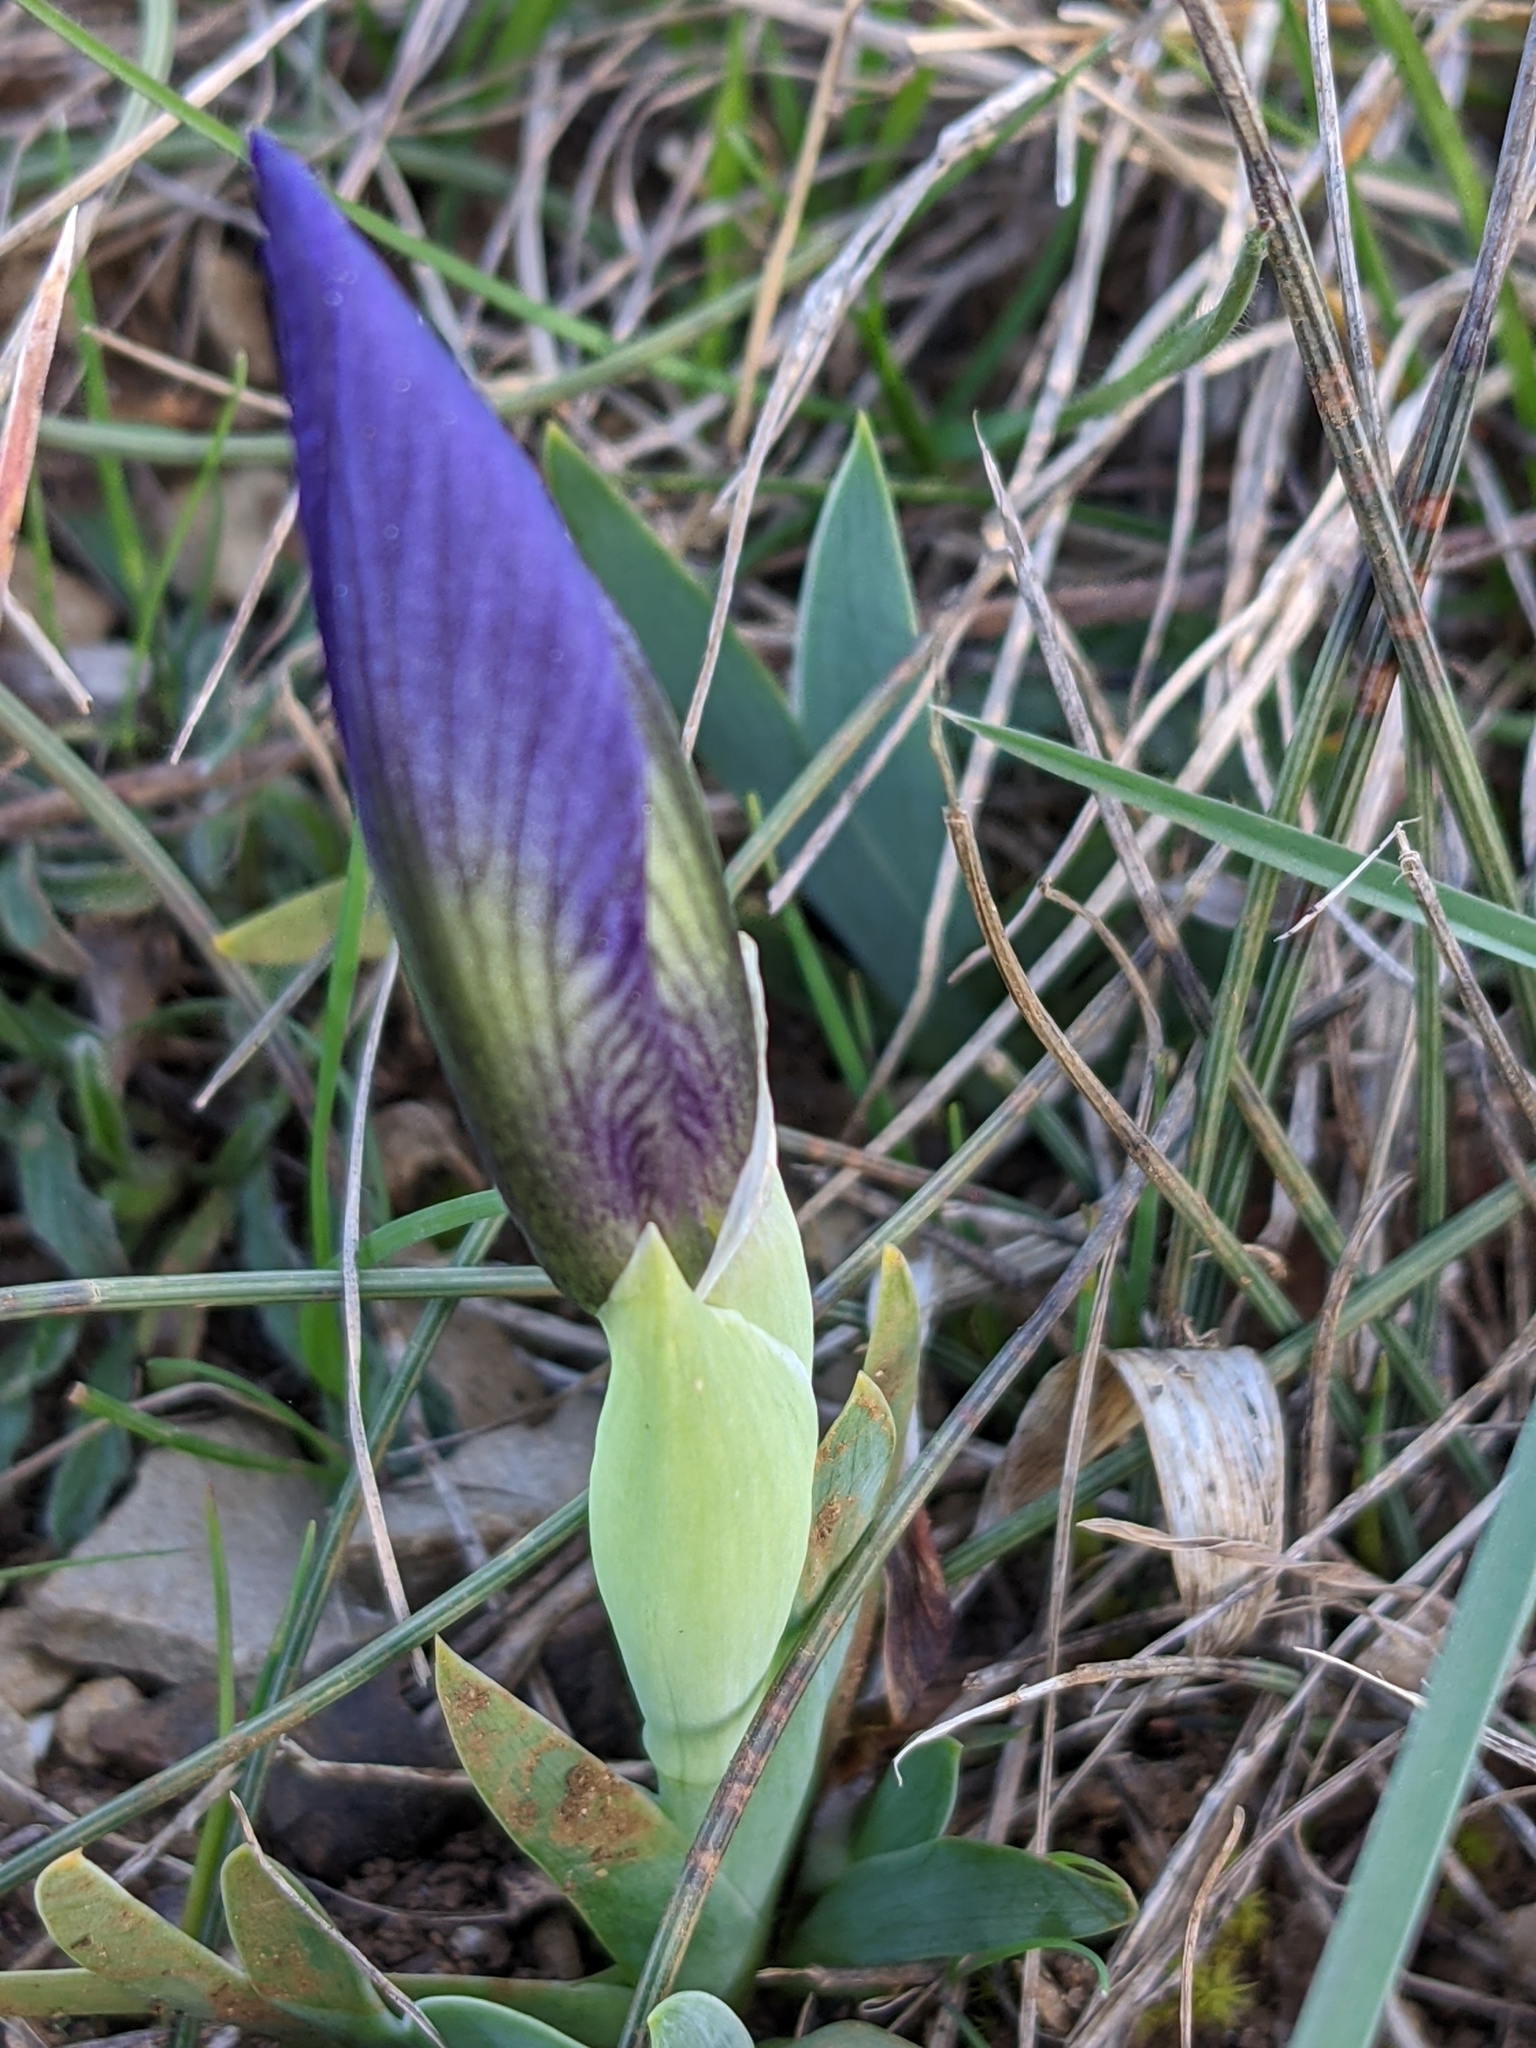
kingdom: Plantae
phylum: Tracheophyta
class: Liliopsida
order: Asparagales
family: Iridaceae
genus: Iris
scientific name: Iris lutescens
